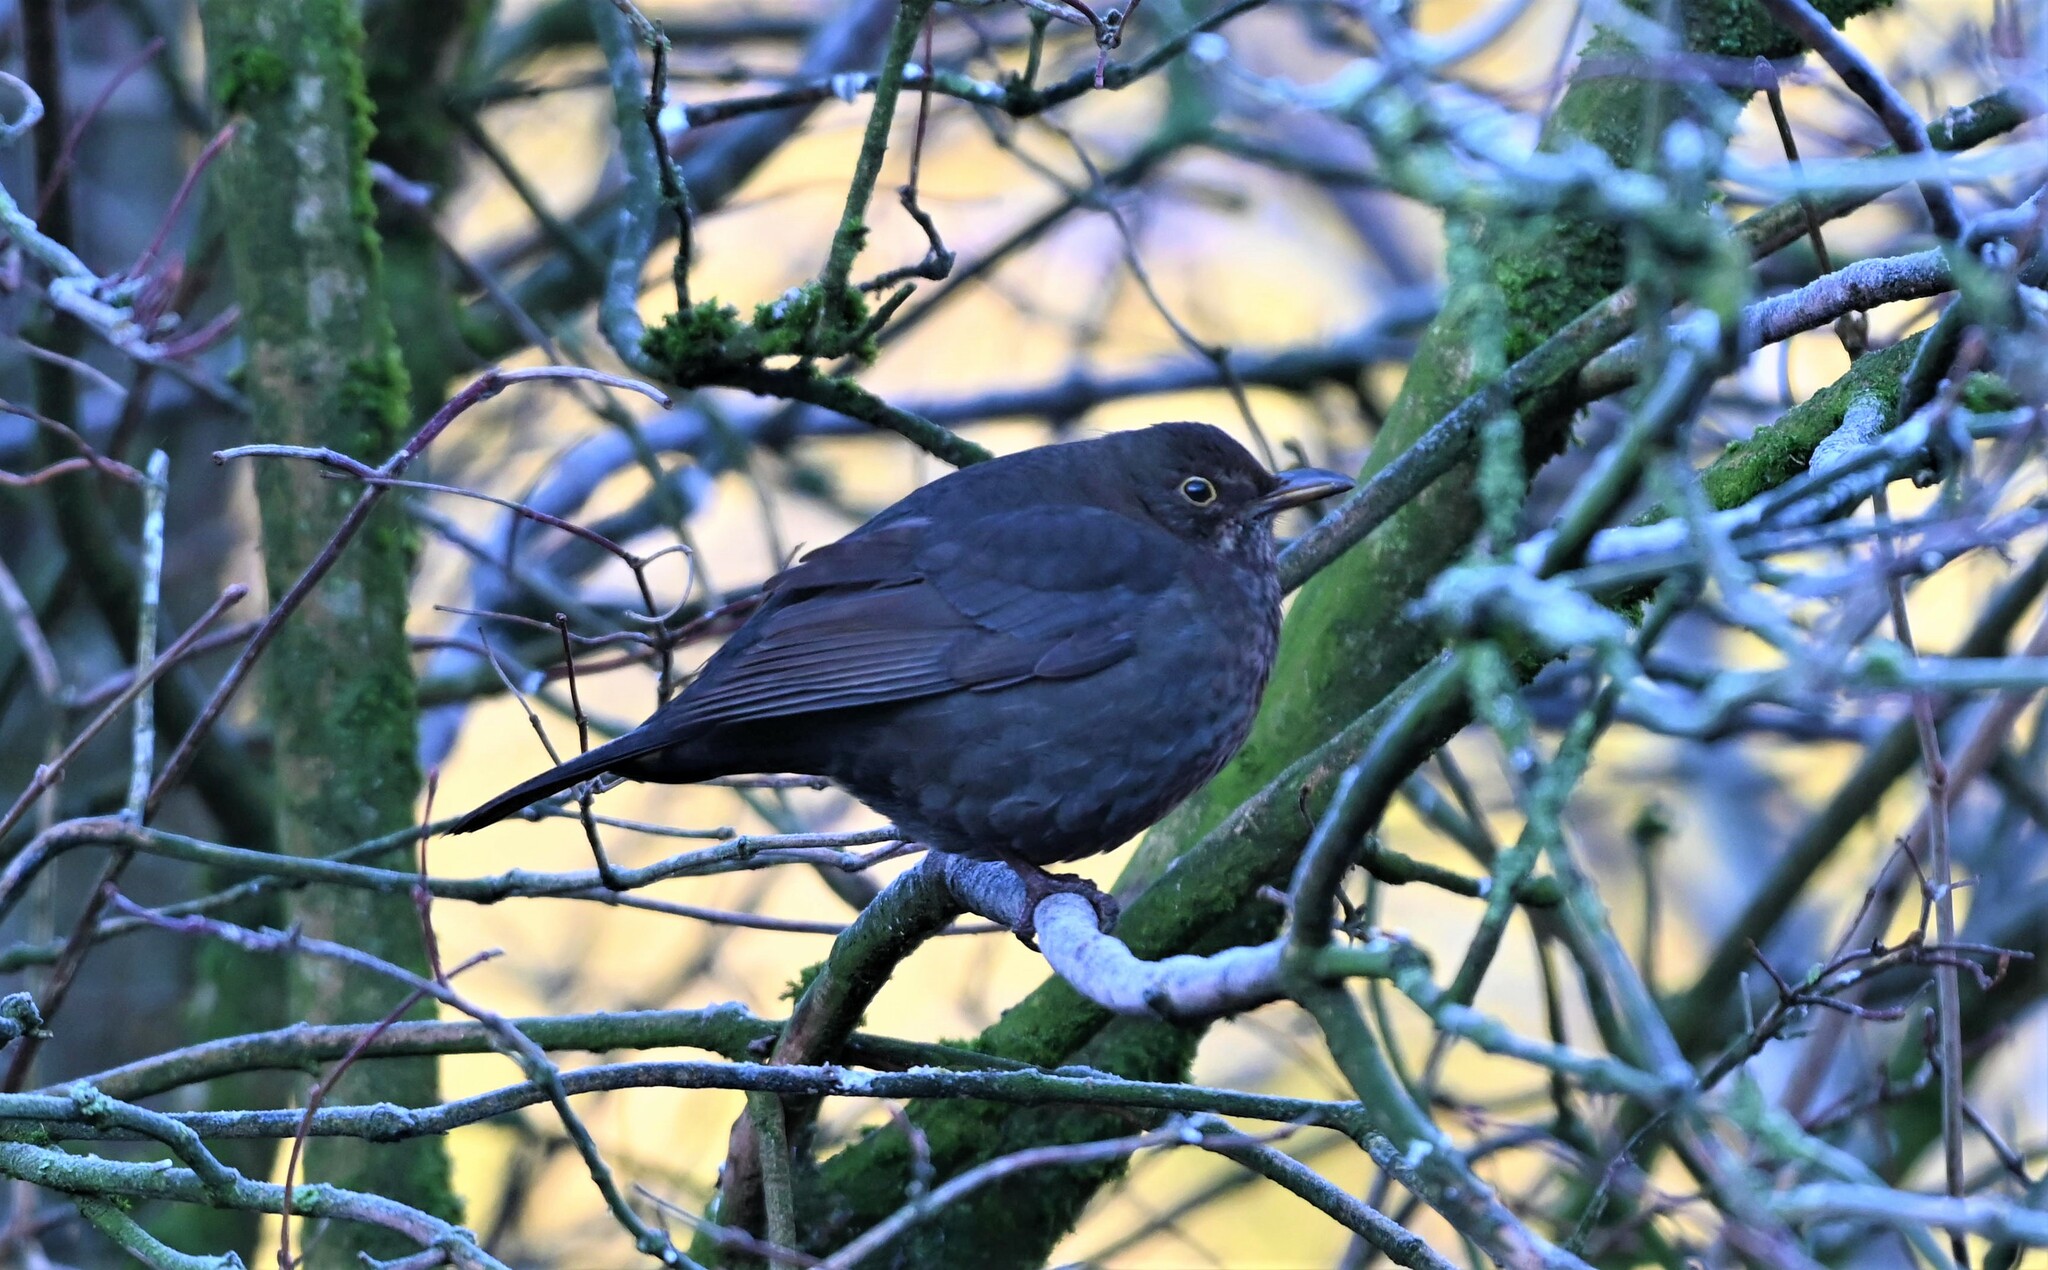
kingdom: Animalia
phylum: Chordata
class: Aves
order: Passeriformes
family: Turdidae
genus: Turdus
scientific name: Turdus merula
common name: Common blackbird
